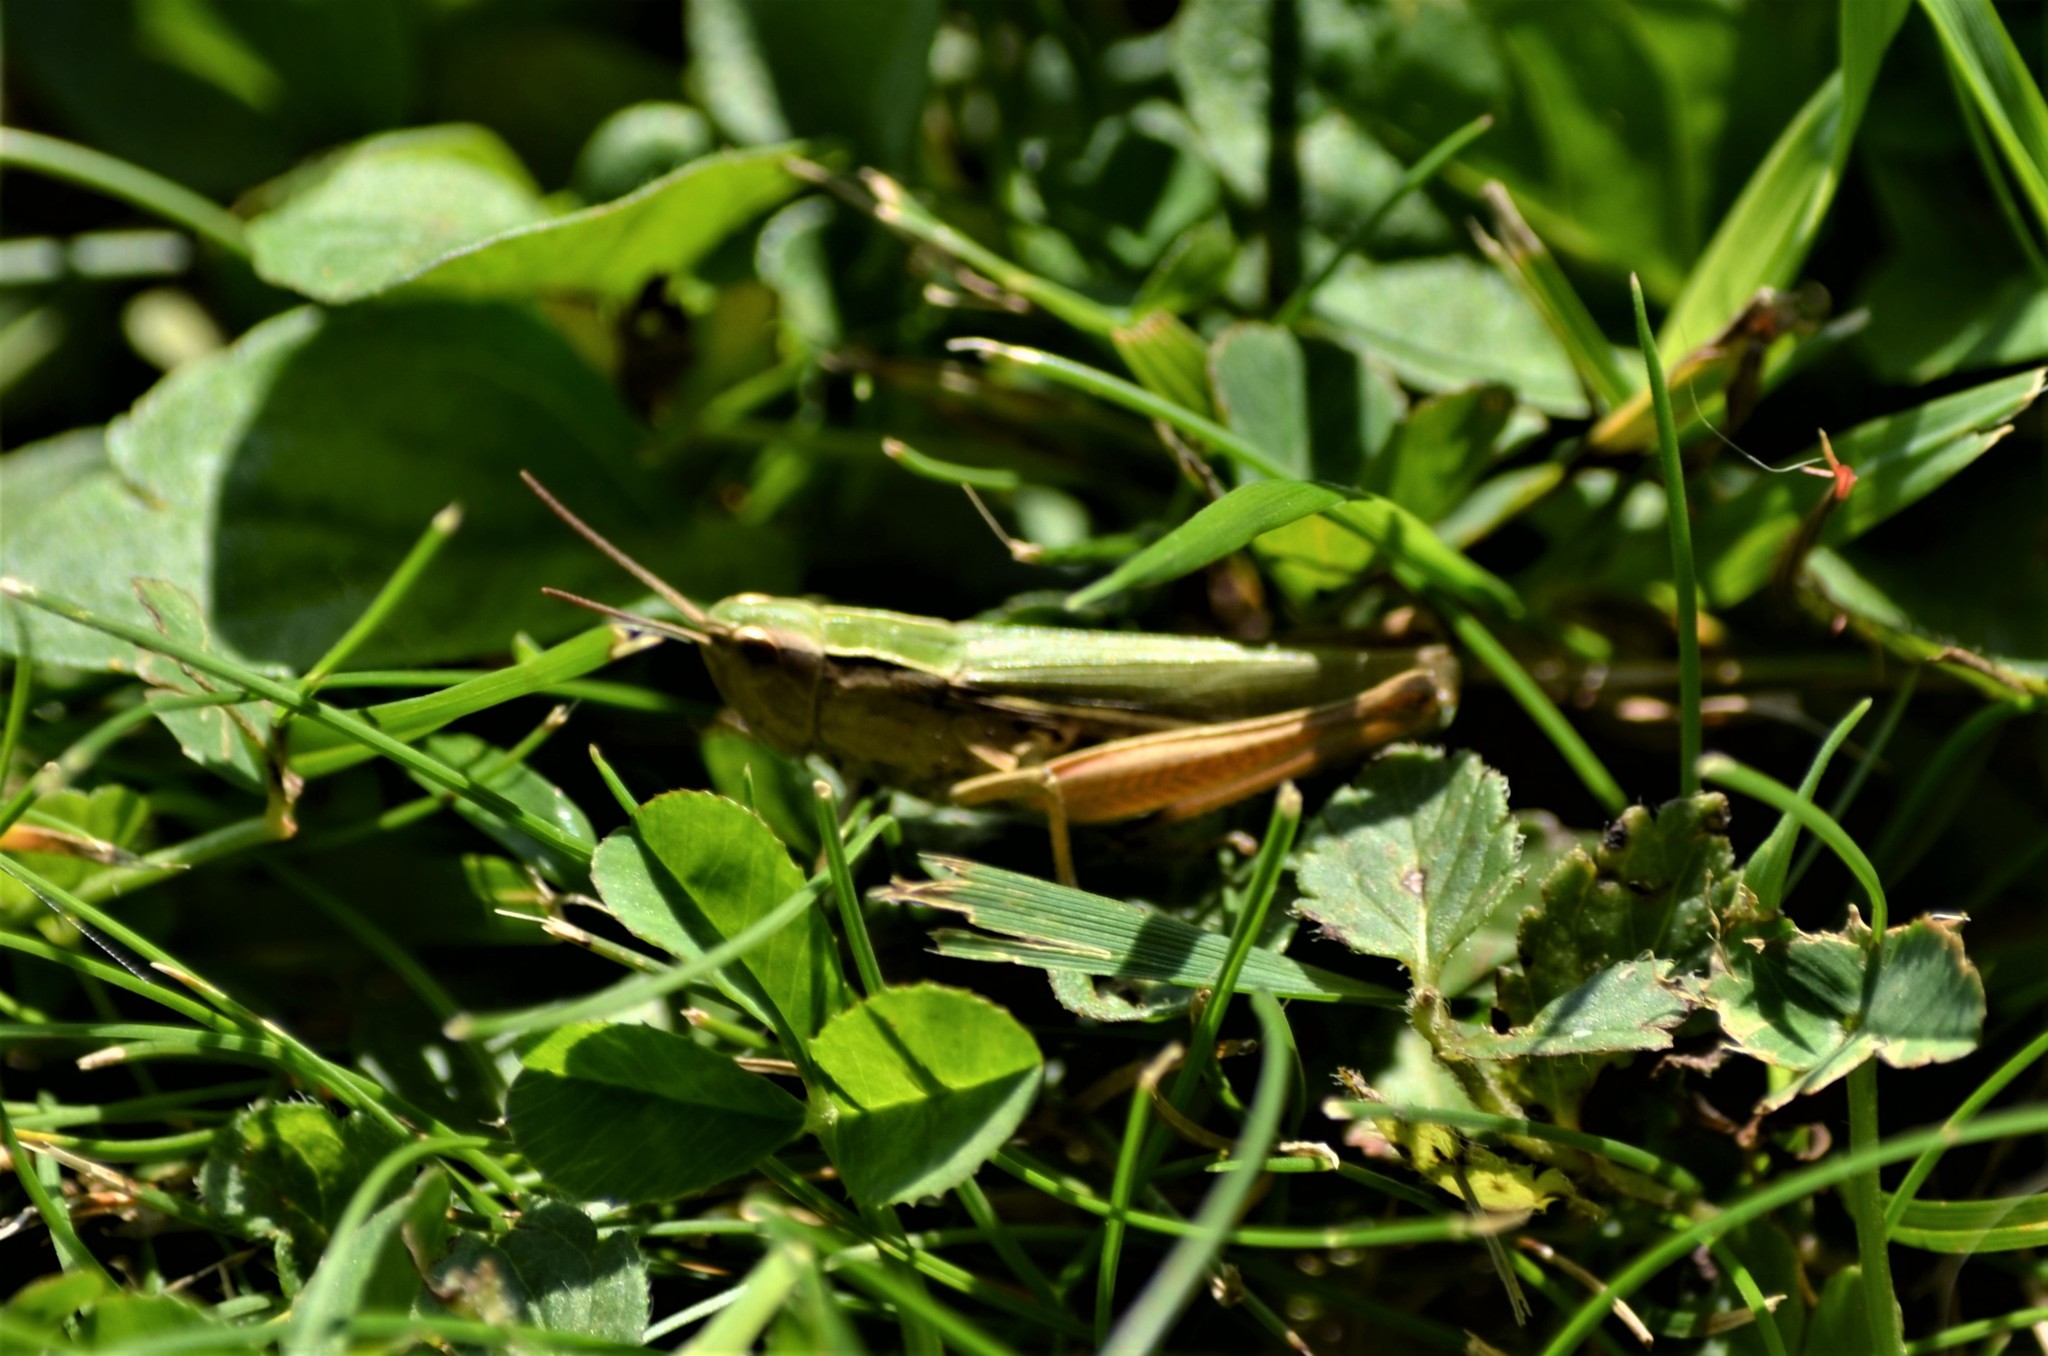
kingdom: Animalia
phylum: Arthropoda
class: Insecta
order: Orthoptera
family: Acrididae
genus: Chorthippus
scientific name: Chorthippus albomarginatus
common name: Lesser marsh grasshopper
